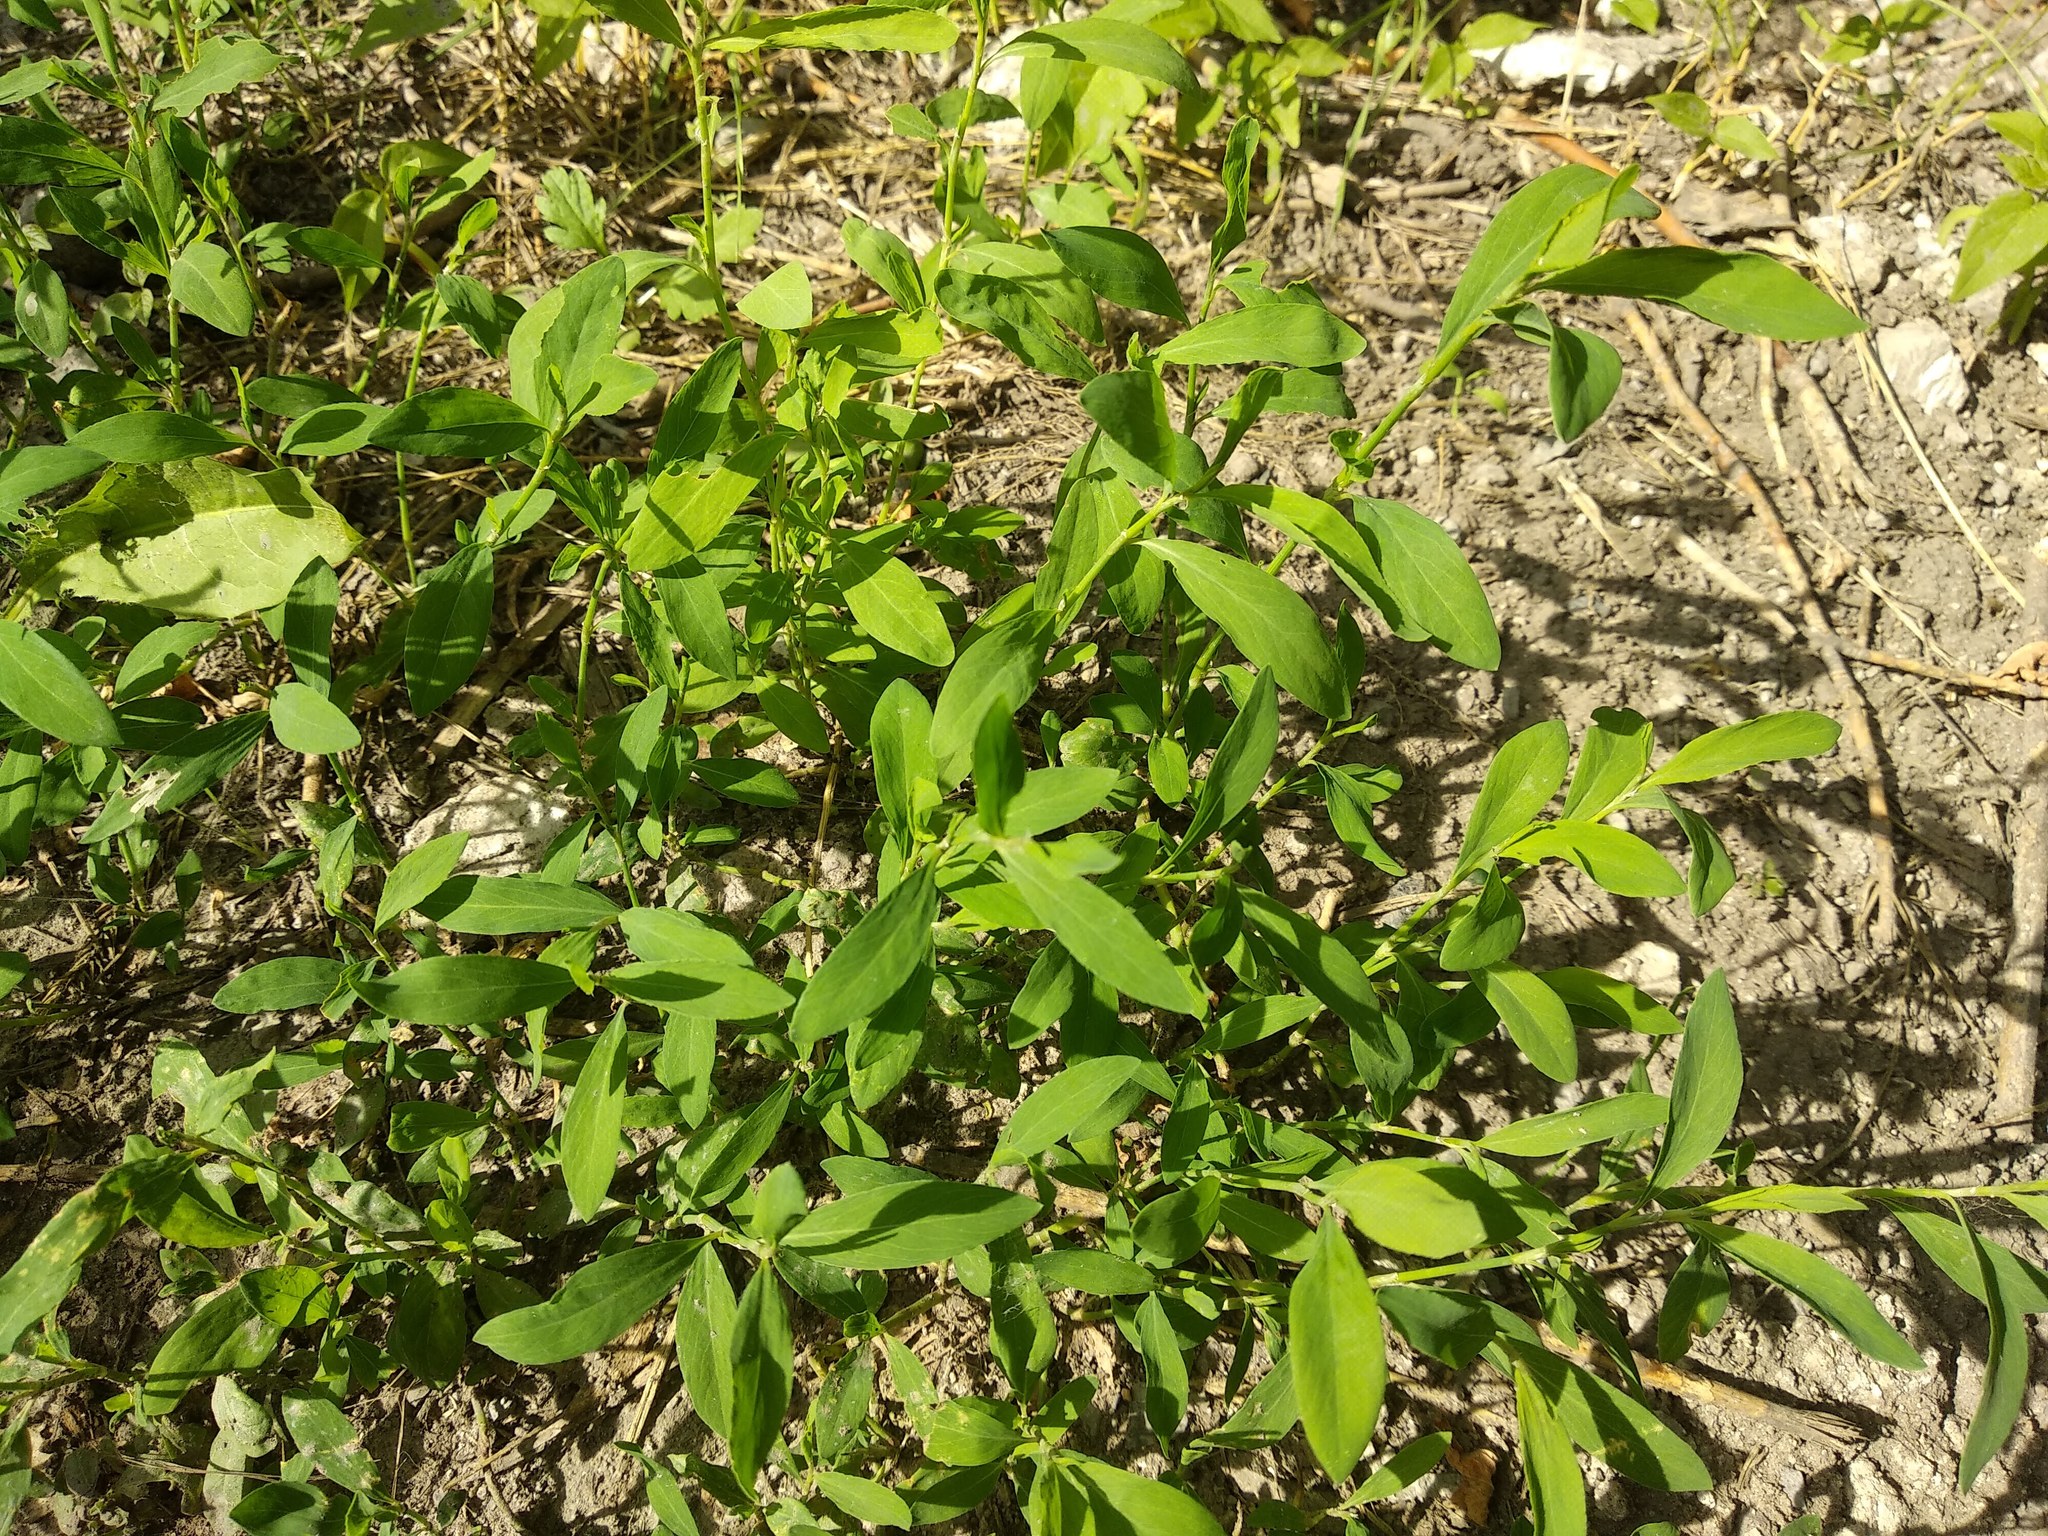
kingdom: Plantae
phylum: Tracheophyta
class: Magnoliopsida
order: Caryophyllales
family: Polygonaceae
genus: Polygonum
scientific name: Polygonum aviculare
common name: Prostrate knotweed
